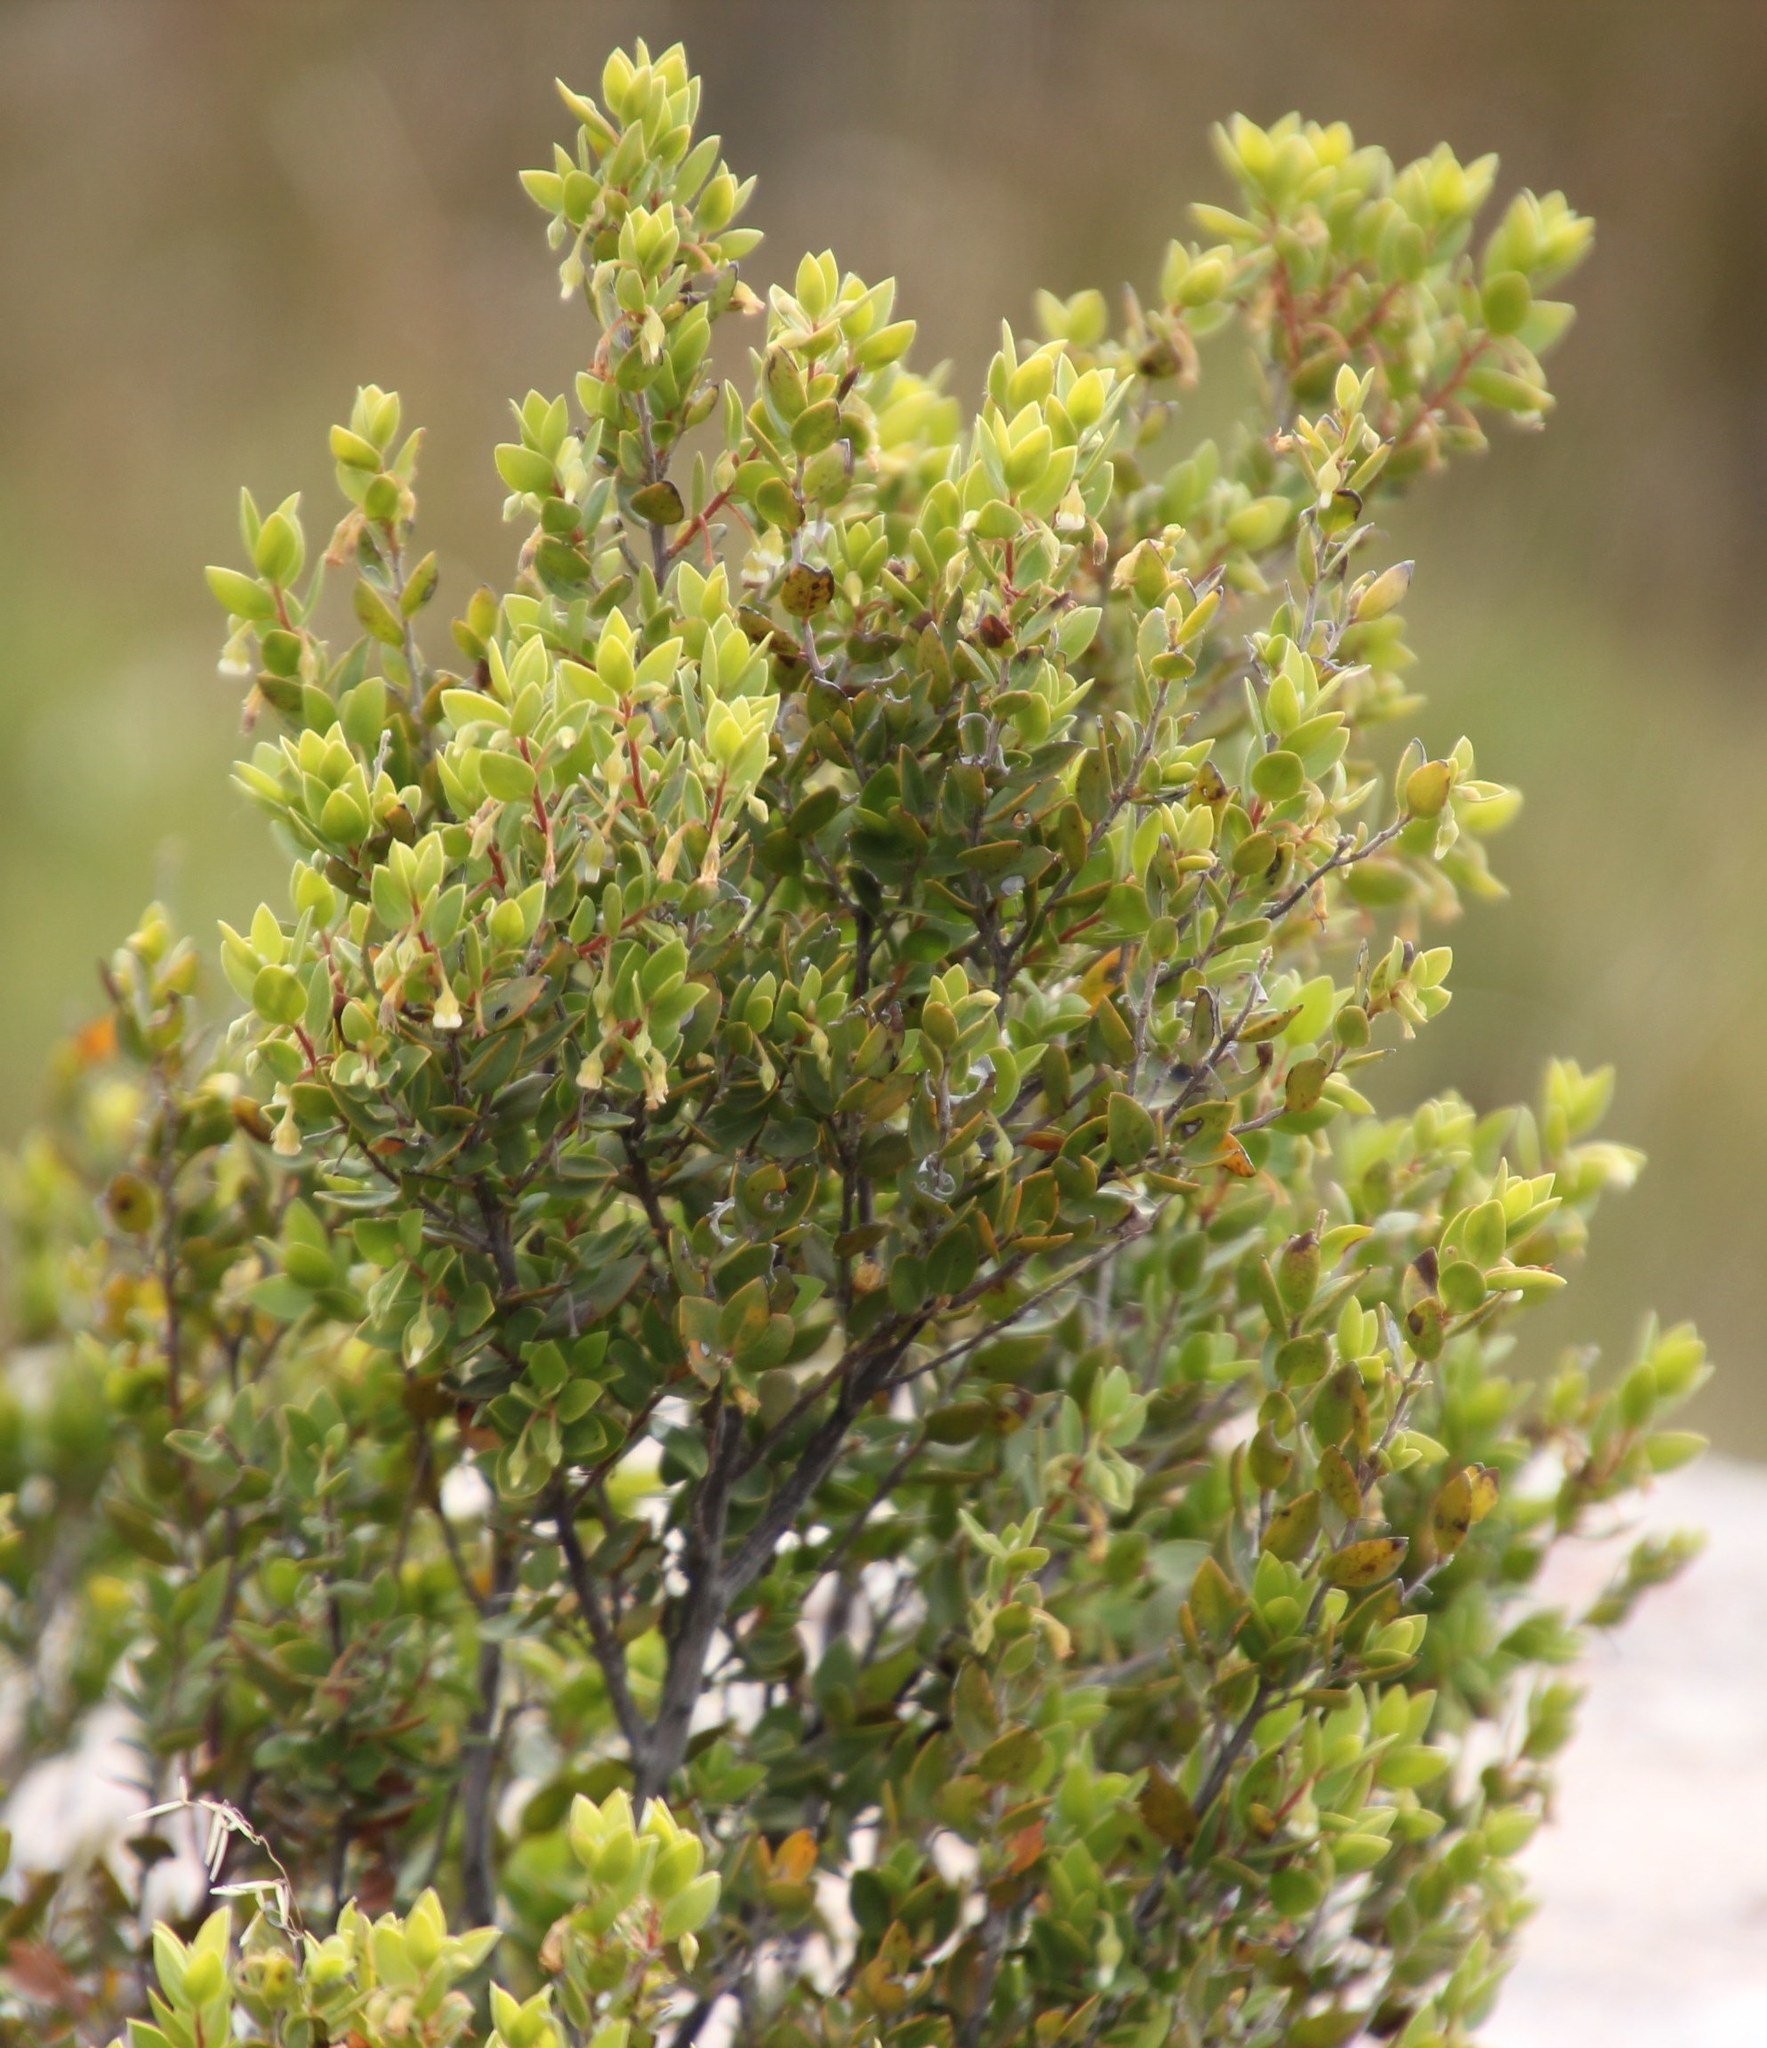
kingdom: Plantae
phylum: Tracheophyta
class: Magnoliopsida
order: Ericales
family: Ebenaceae
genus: Diospyros
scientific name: Diospyros glabra
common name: Fynbos star apple
